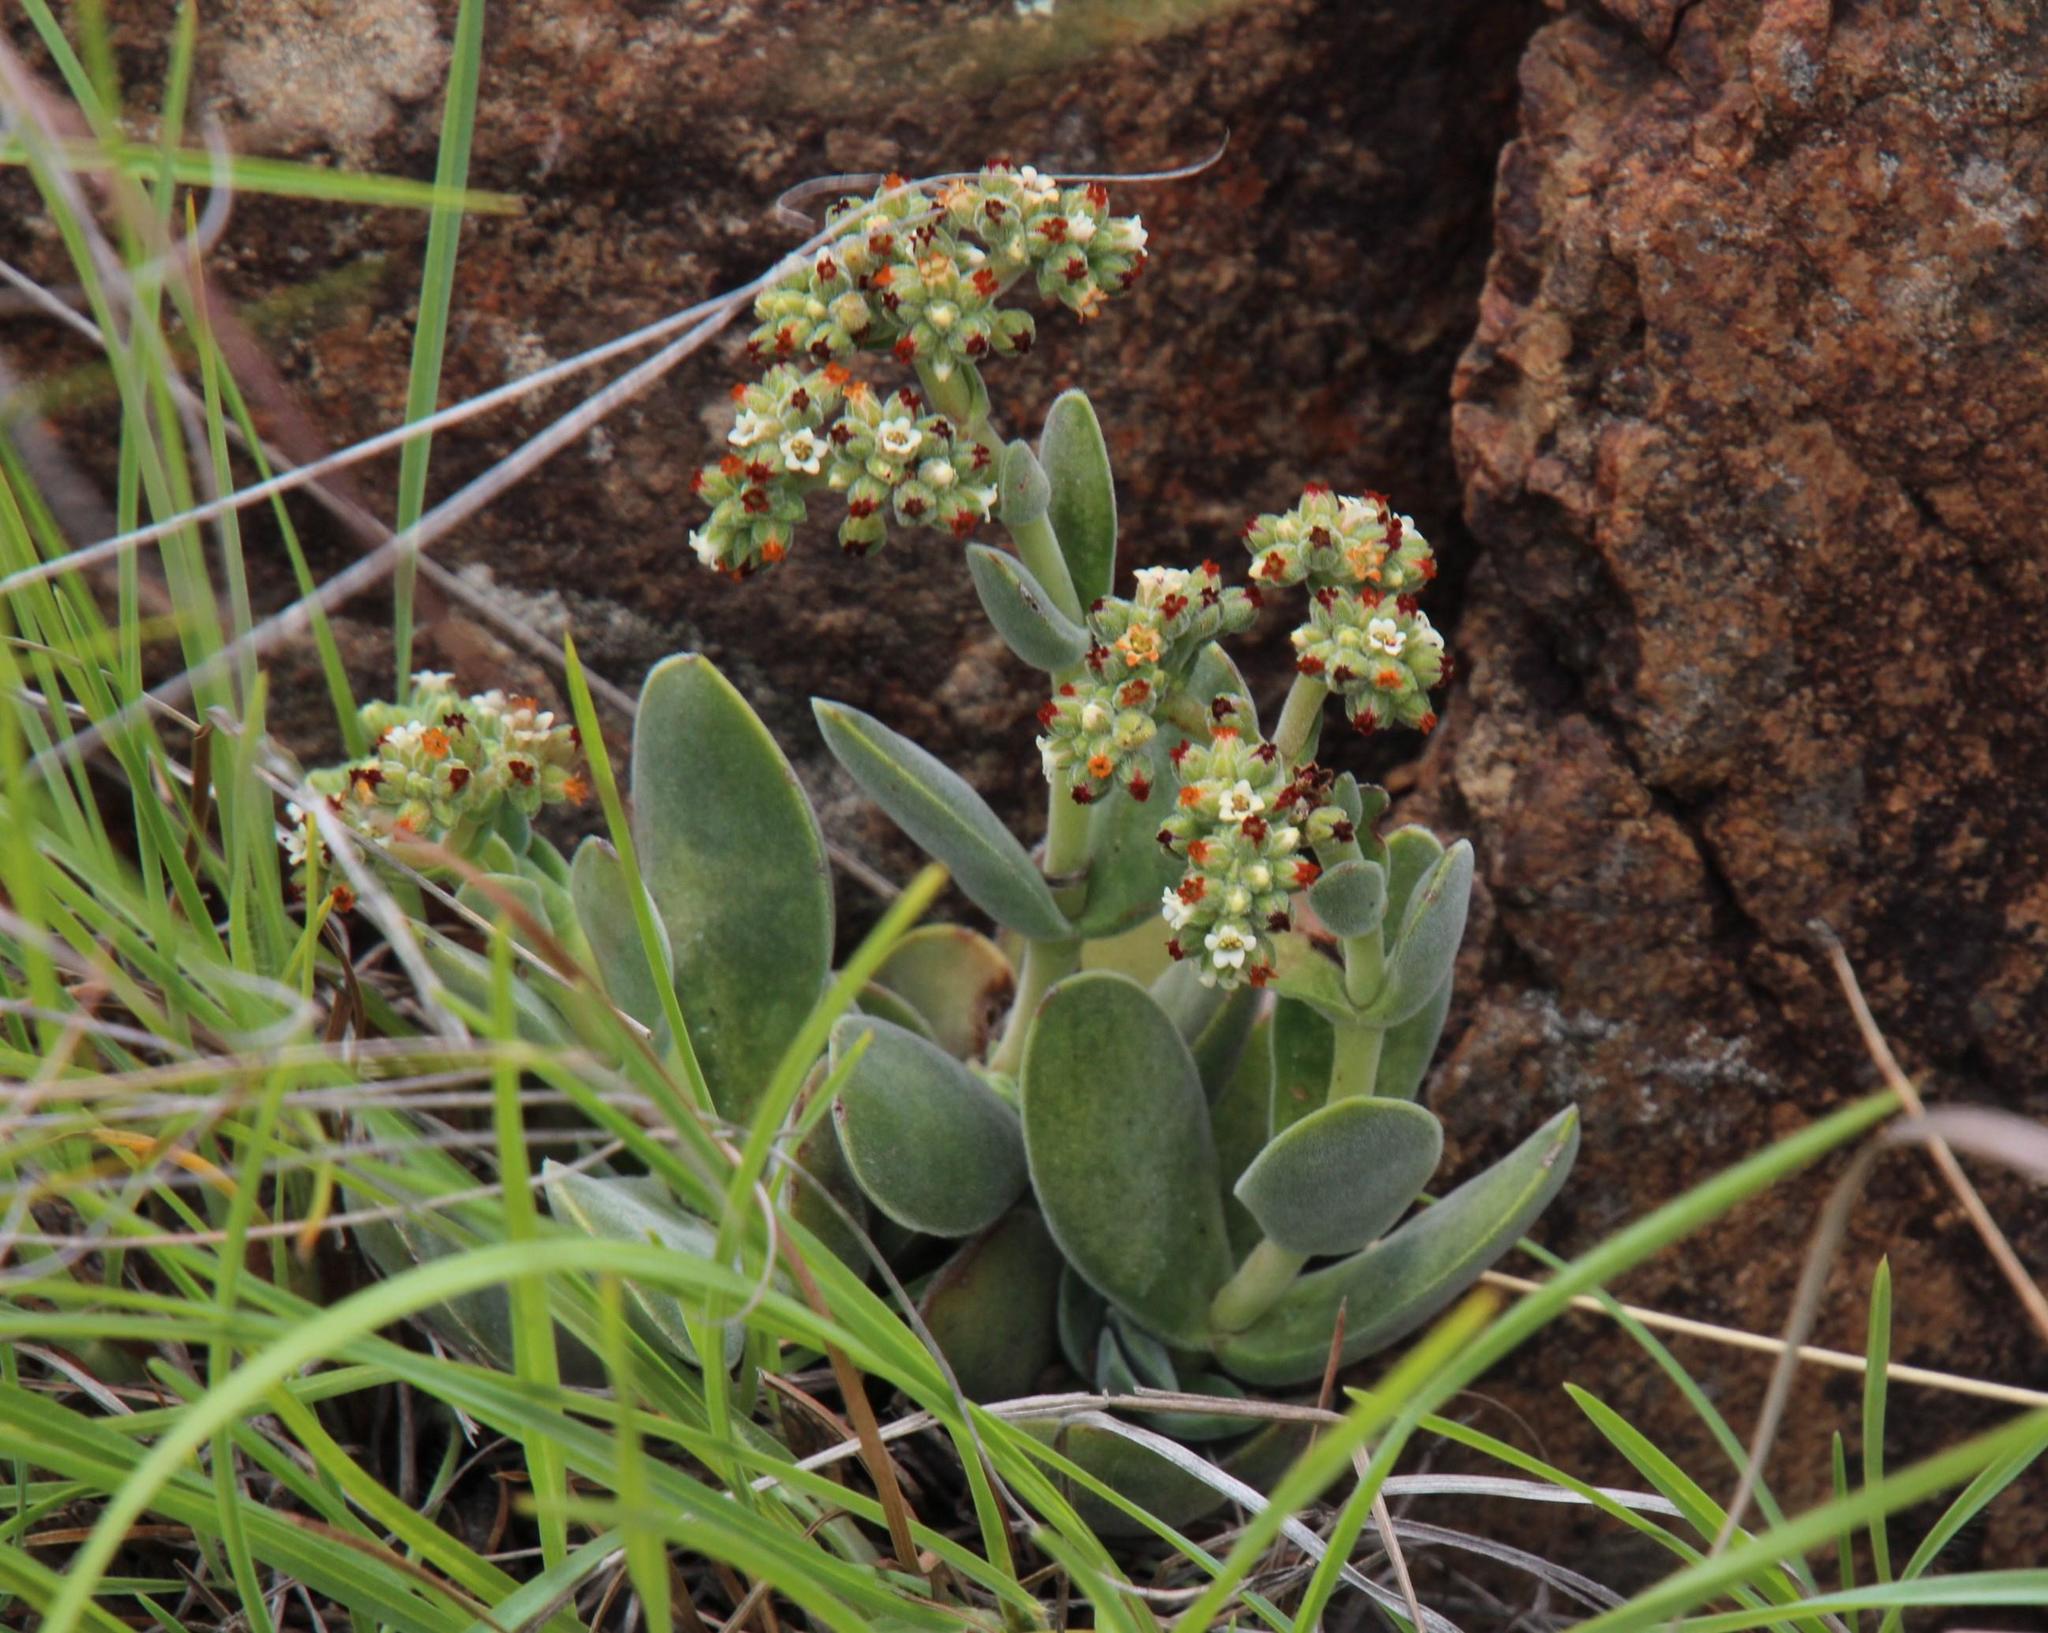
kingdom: Plantae
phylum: Tracheophyta
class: Magnoliopsida
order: Saxifragales
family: Crassulaceae
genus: Crassula
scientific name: Crassula lanuginosa
